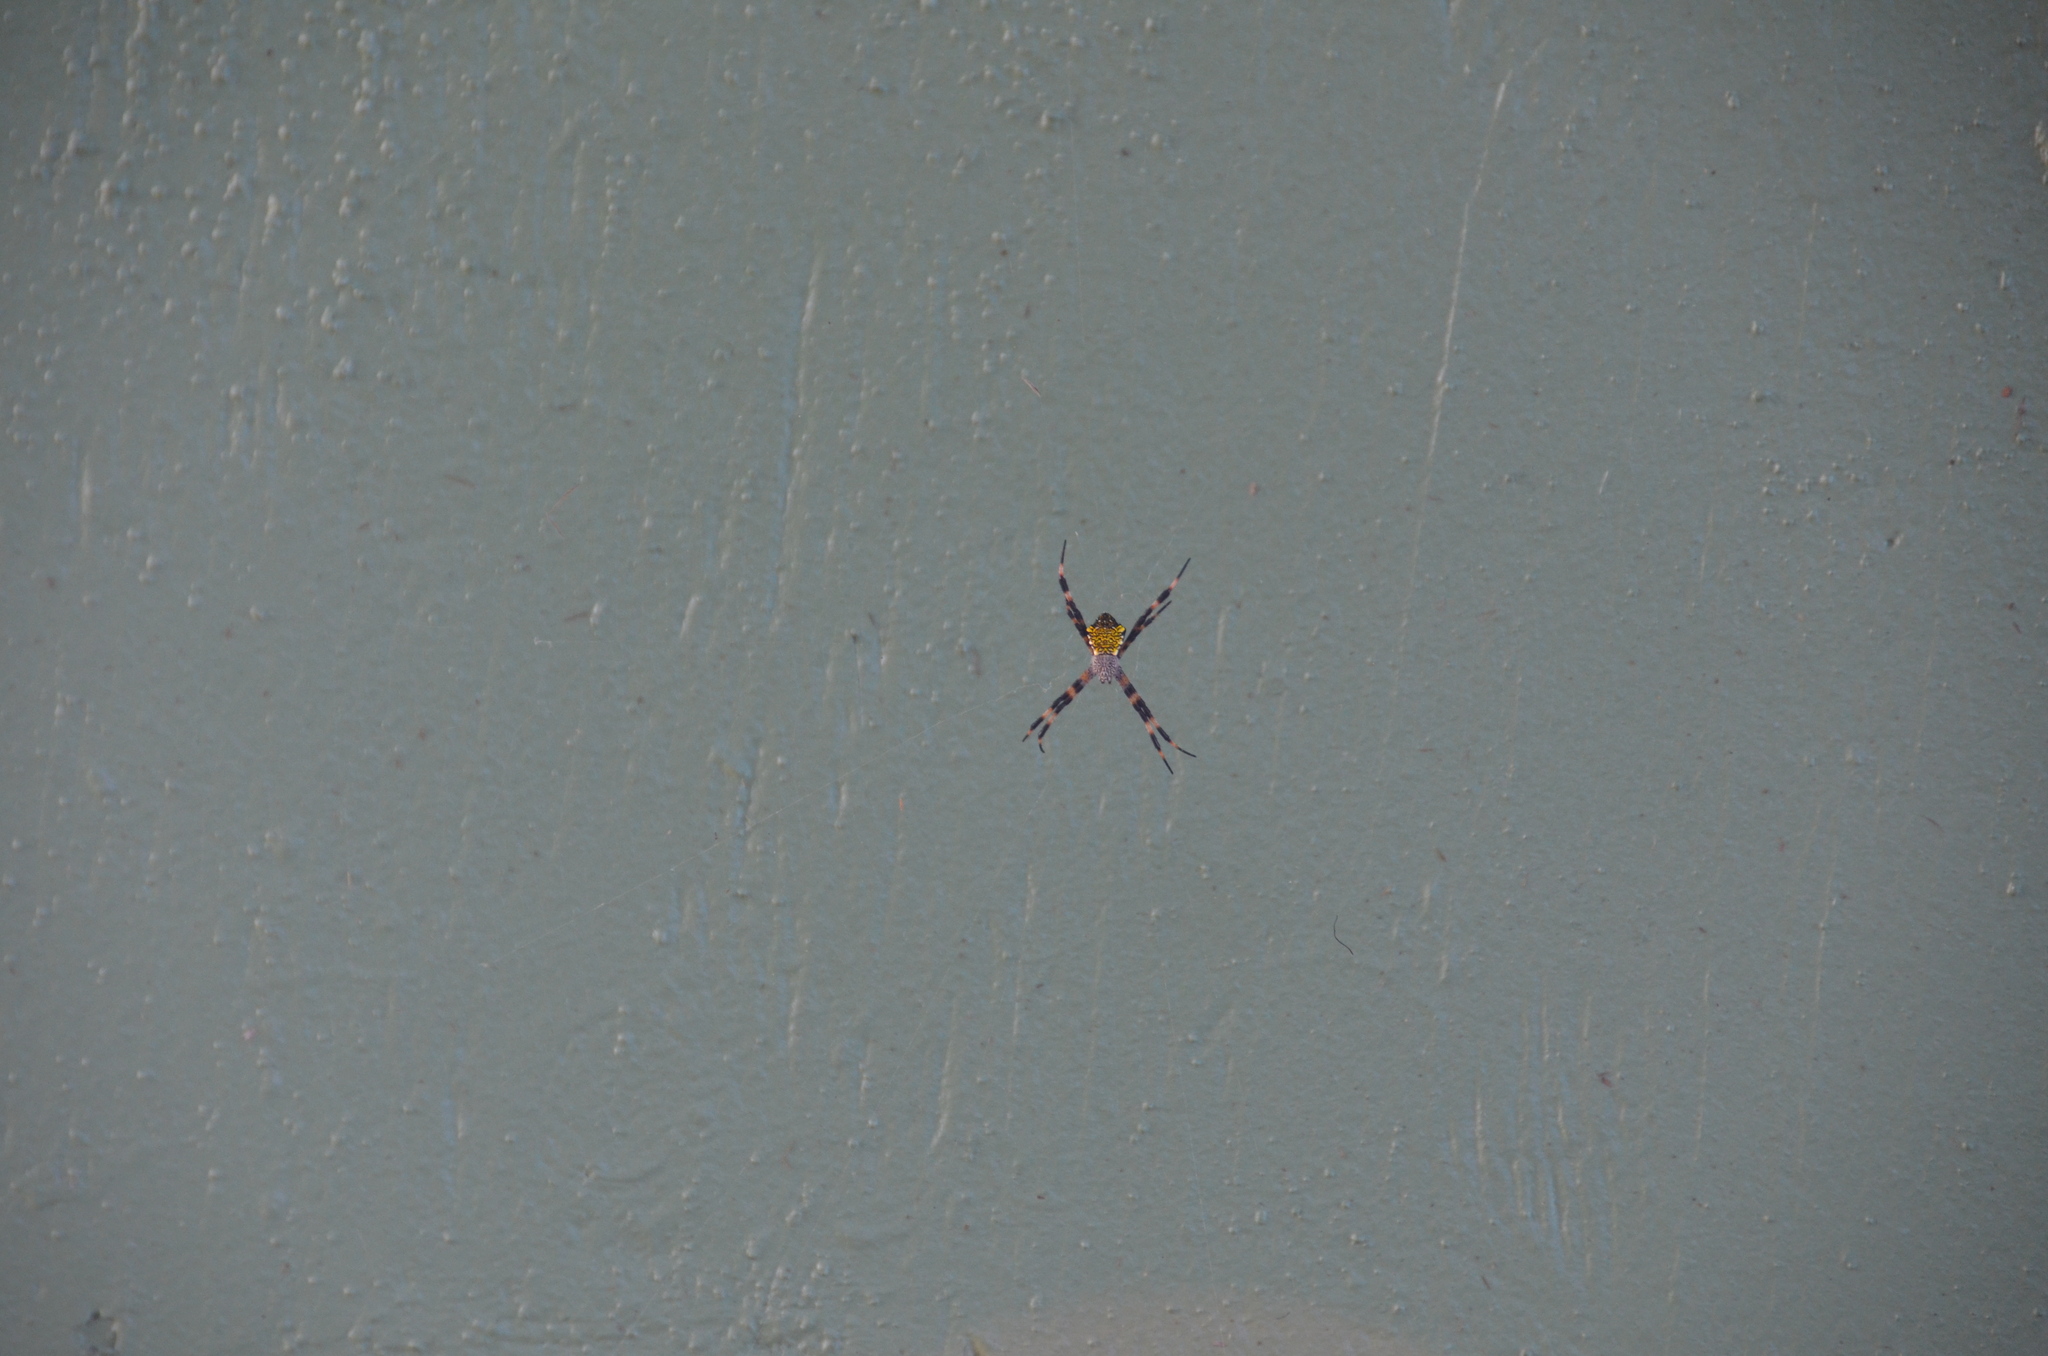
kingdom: Animalia
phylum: Arthropoda
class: Arachnida
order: Araneae
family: Araneidae
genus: Argiope
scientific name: Argiope appensa
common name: Garden spider
